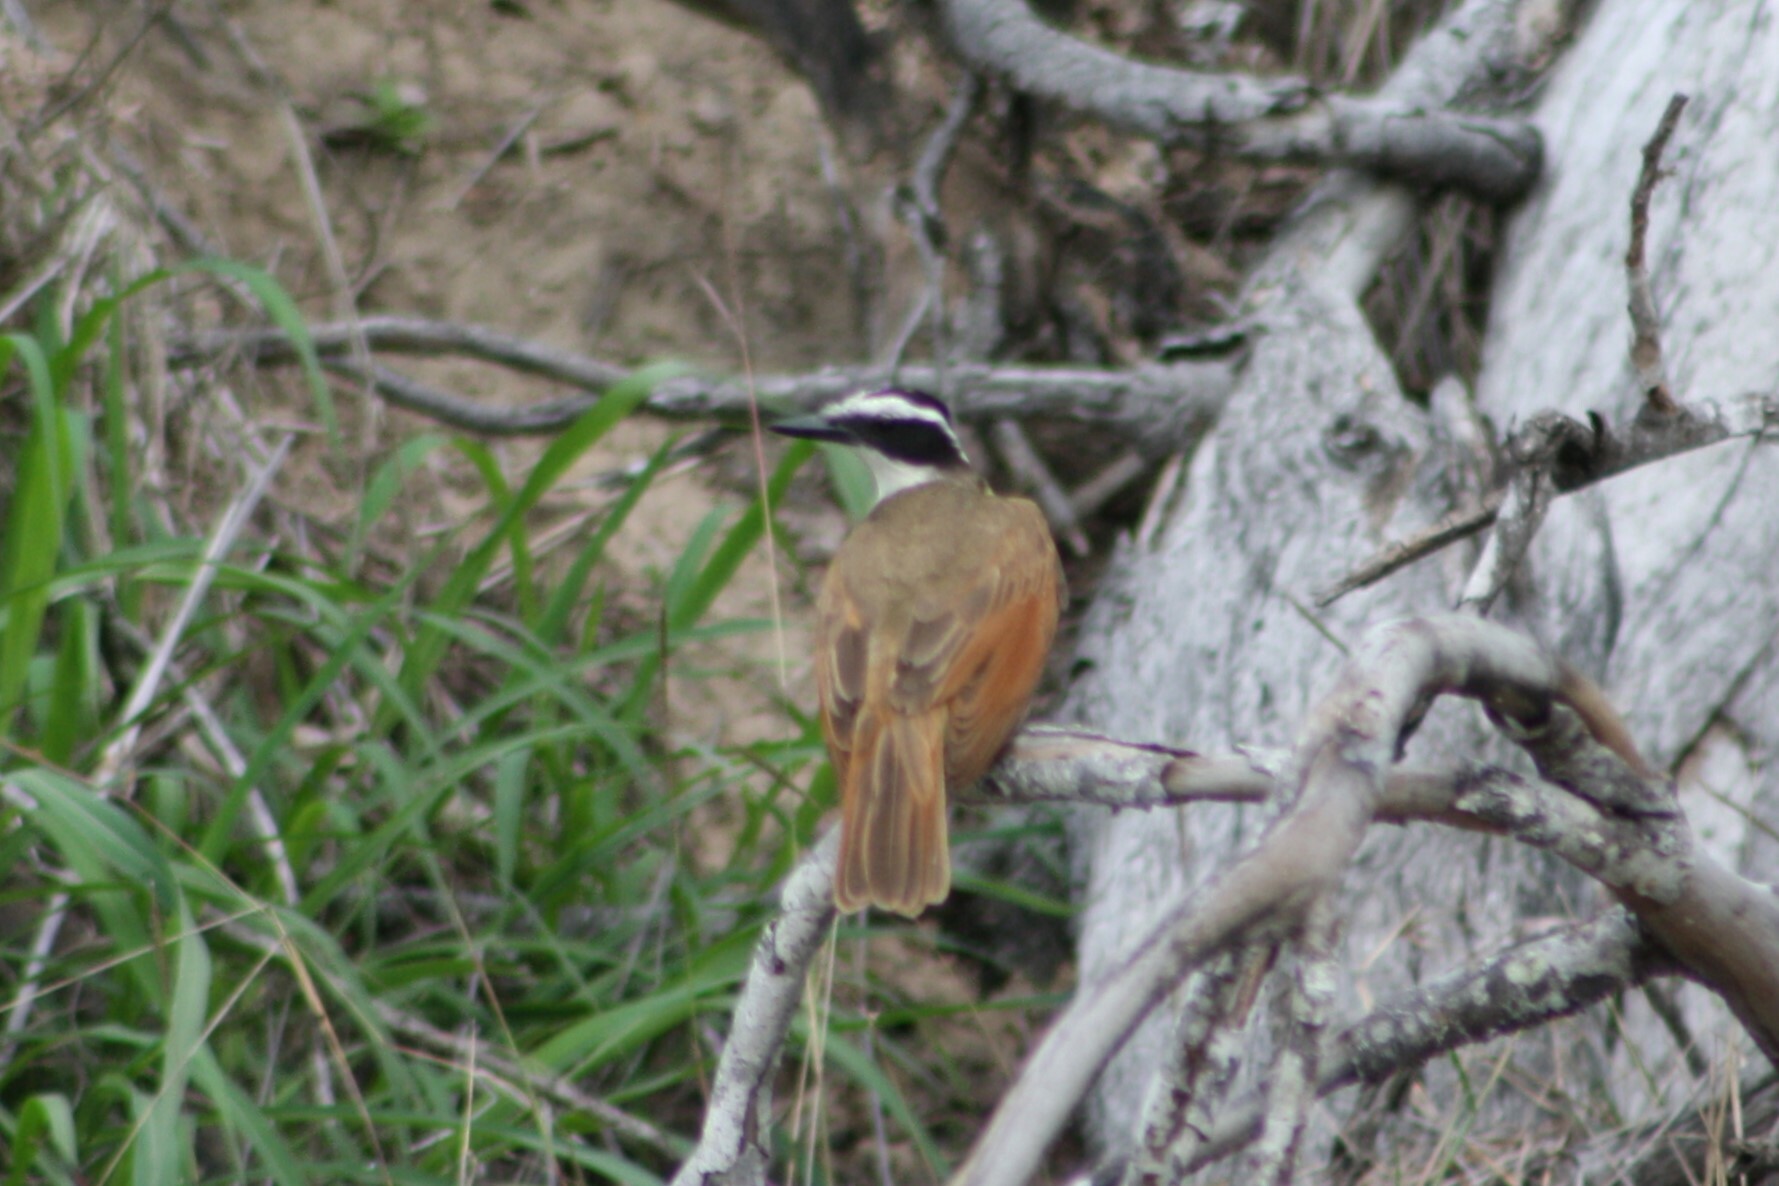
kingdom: Animalia
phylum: Chordata
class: Aves
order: Passeriformes
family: Tyrannidae
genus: Pitangus
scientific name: Pitangus sulphuratus
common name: Great kiskadee
